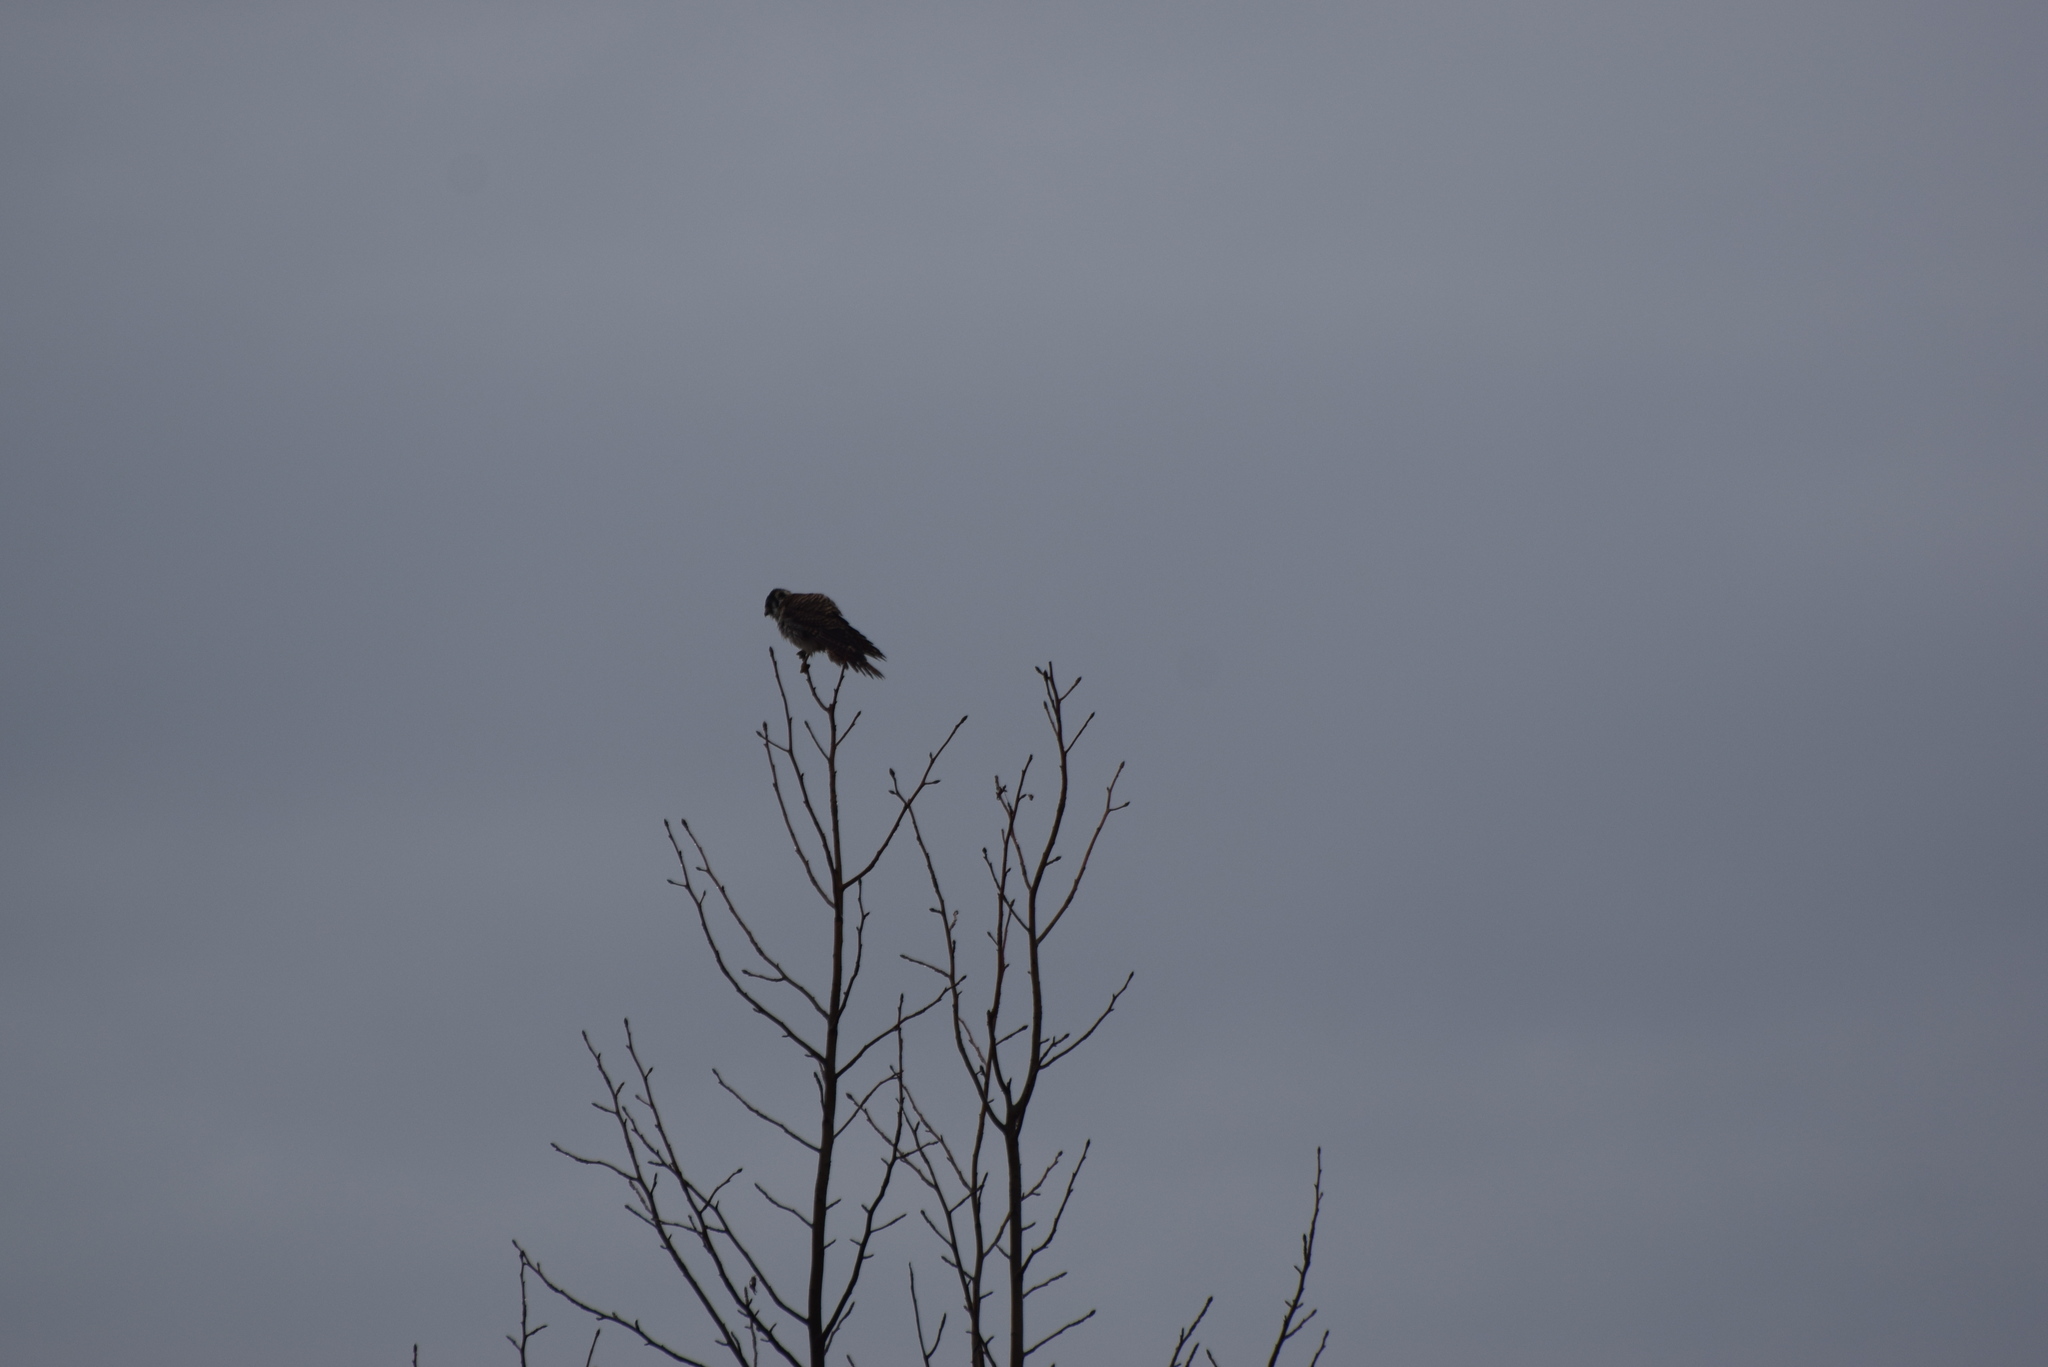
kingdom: Animalia
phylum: Chordata
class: Aves
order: Falconiformes
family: Falconidae
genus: Falco
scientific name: Falco sparverius
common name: American kestrel
